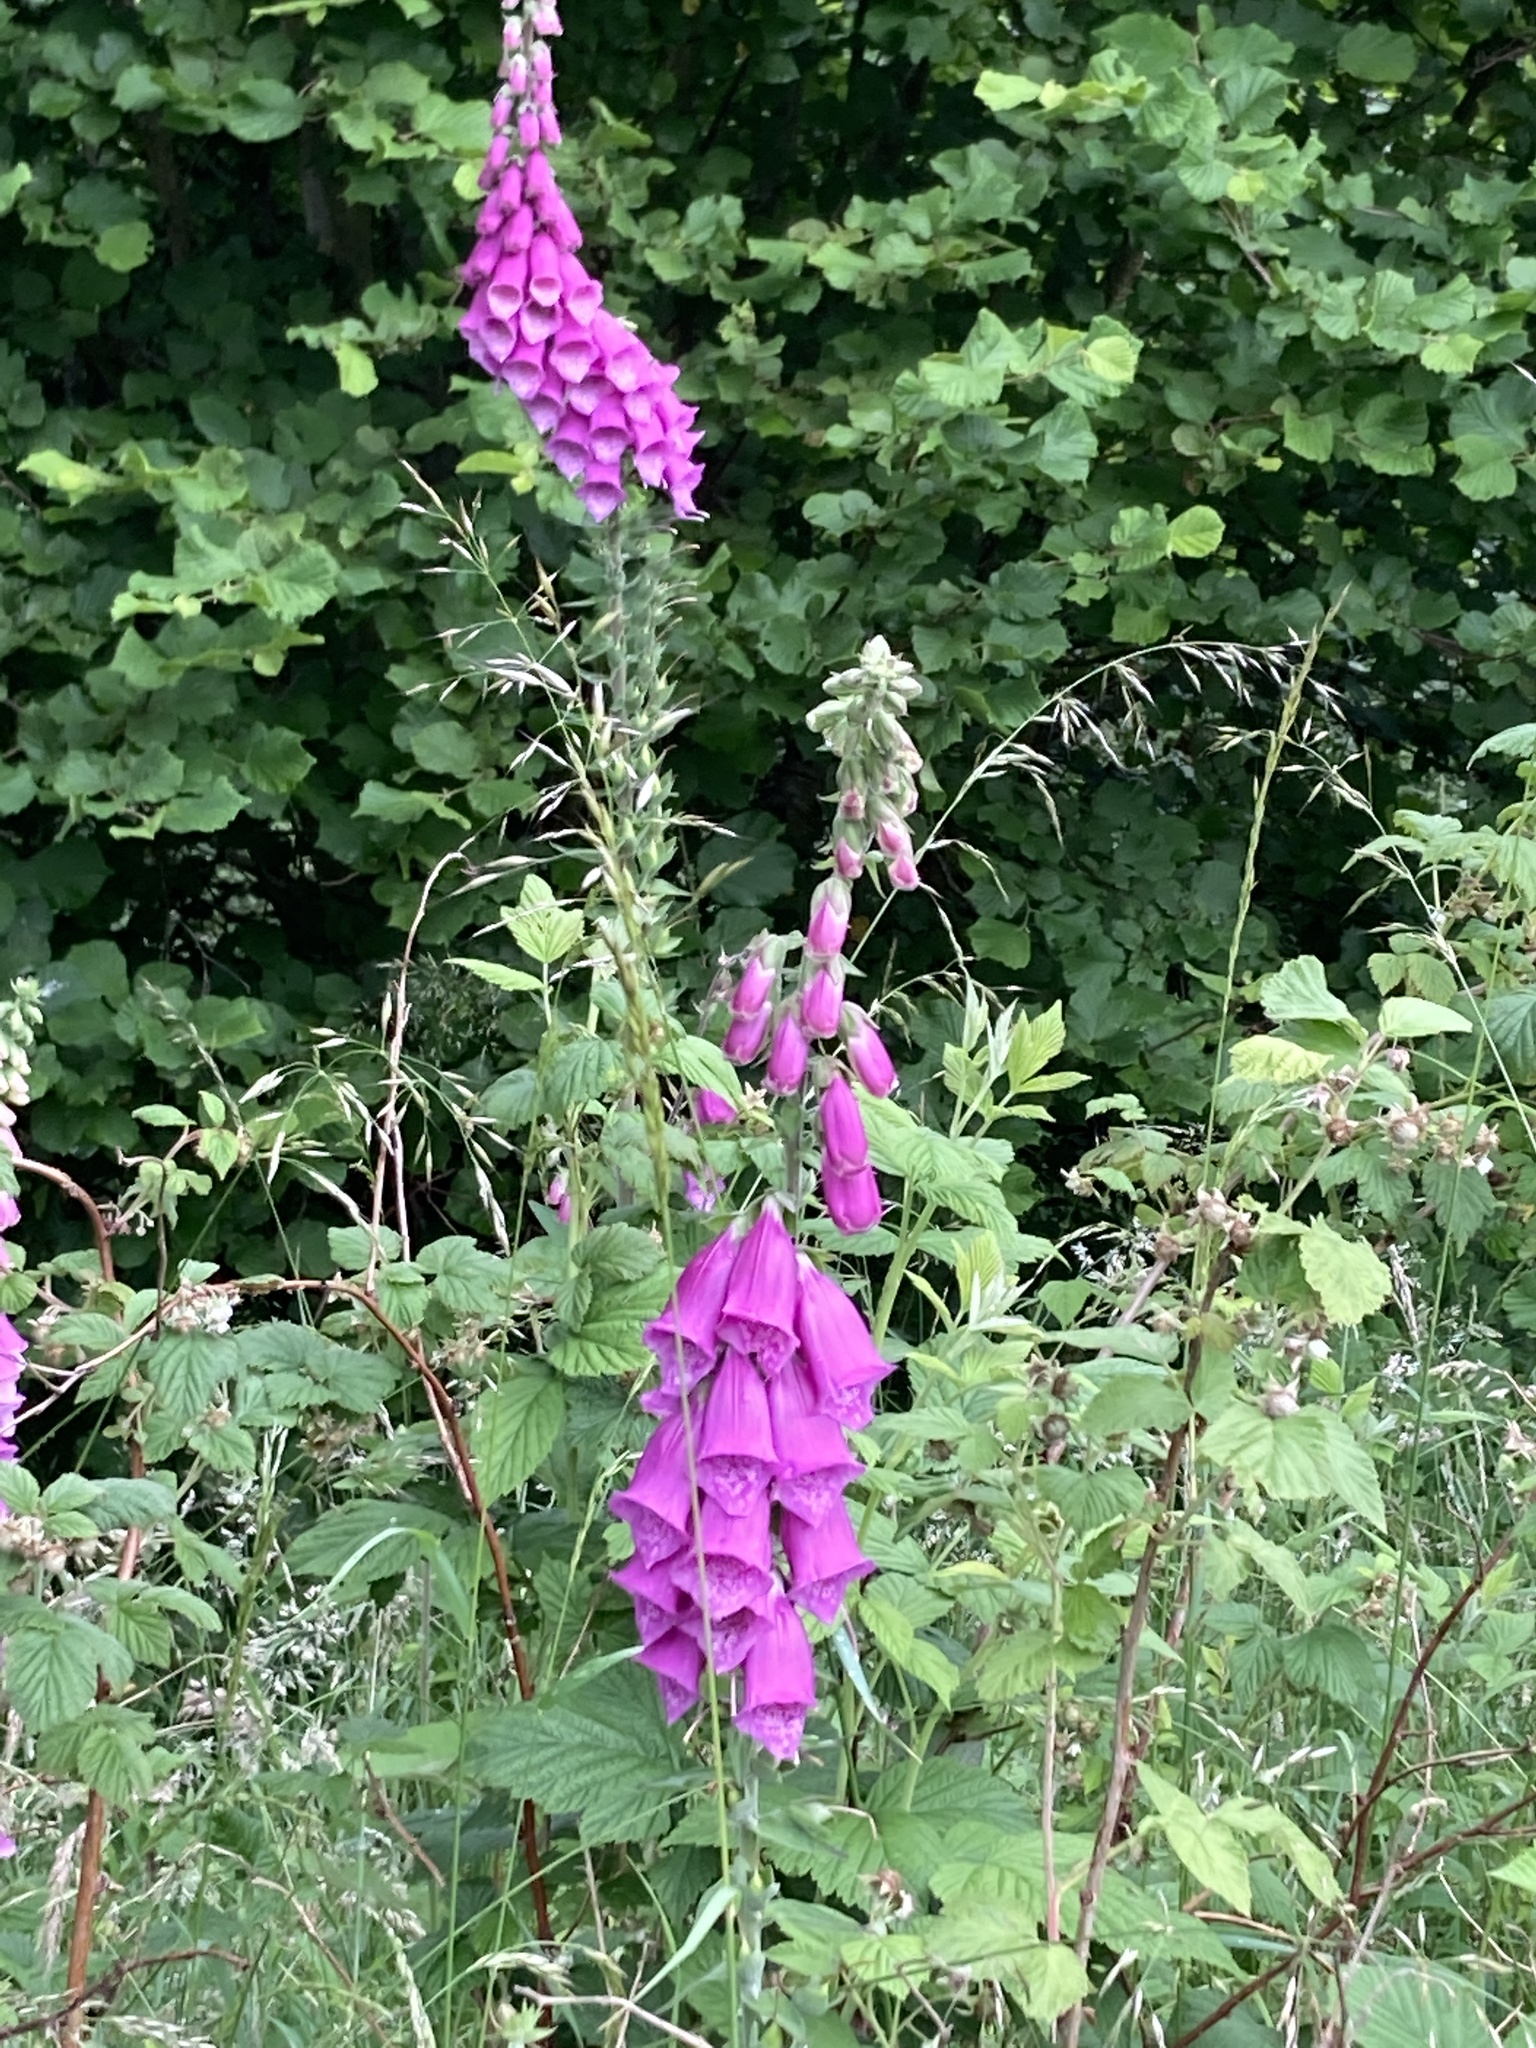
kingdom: Plantae
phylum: Tracheophyta
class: Magnoliopsida
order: Lamiales
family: Plantaginaceae
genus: Digitalis
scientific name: Digitalis purpurea
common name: Foxglove
